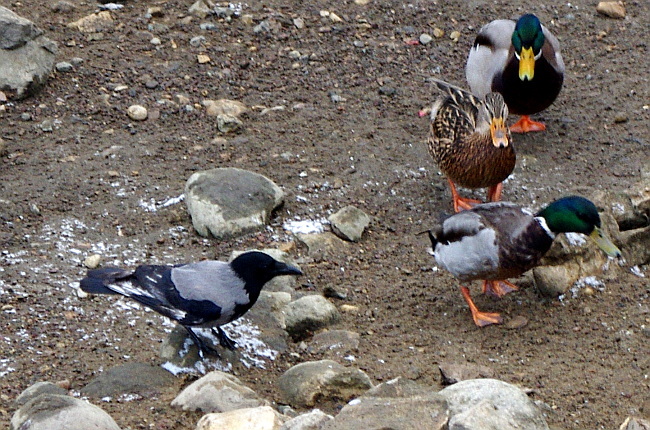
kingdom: Animalia
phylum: Chordata
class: Aves
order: Passeriformes
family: Corvidae
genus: Corvus
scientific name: Corvus cornix
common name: Hooded crow
